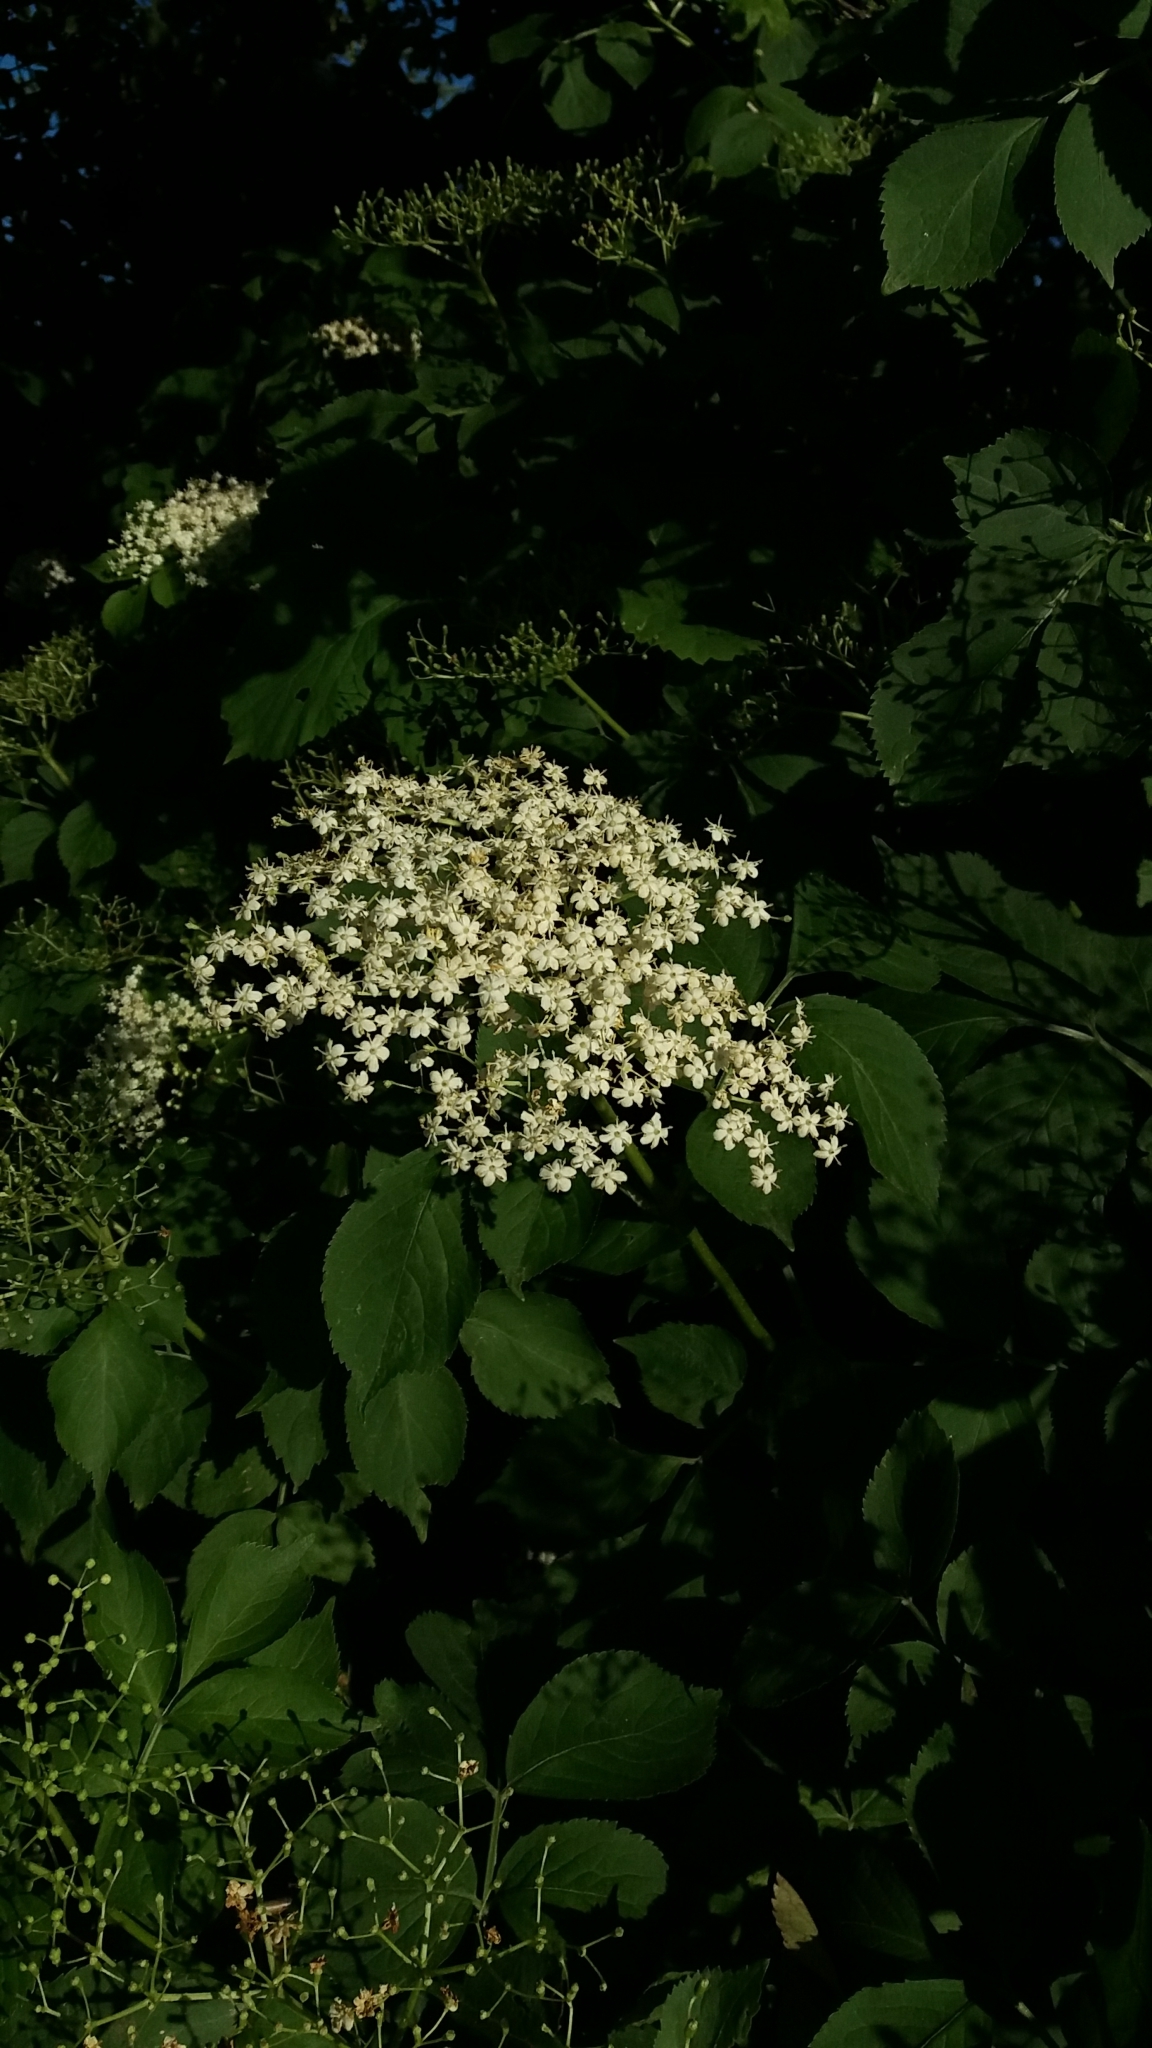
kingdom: Plantae
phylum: Tracheophyta
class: Magnoliopsida
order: Dipsacales
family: Viburnaceae
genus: Sambucus
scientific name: Sambucus nigra
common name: Elder
